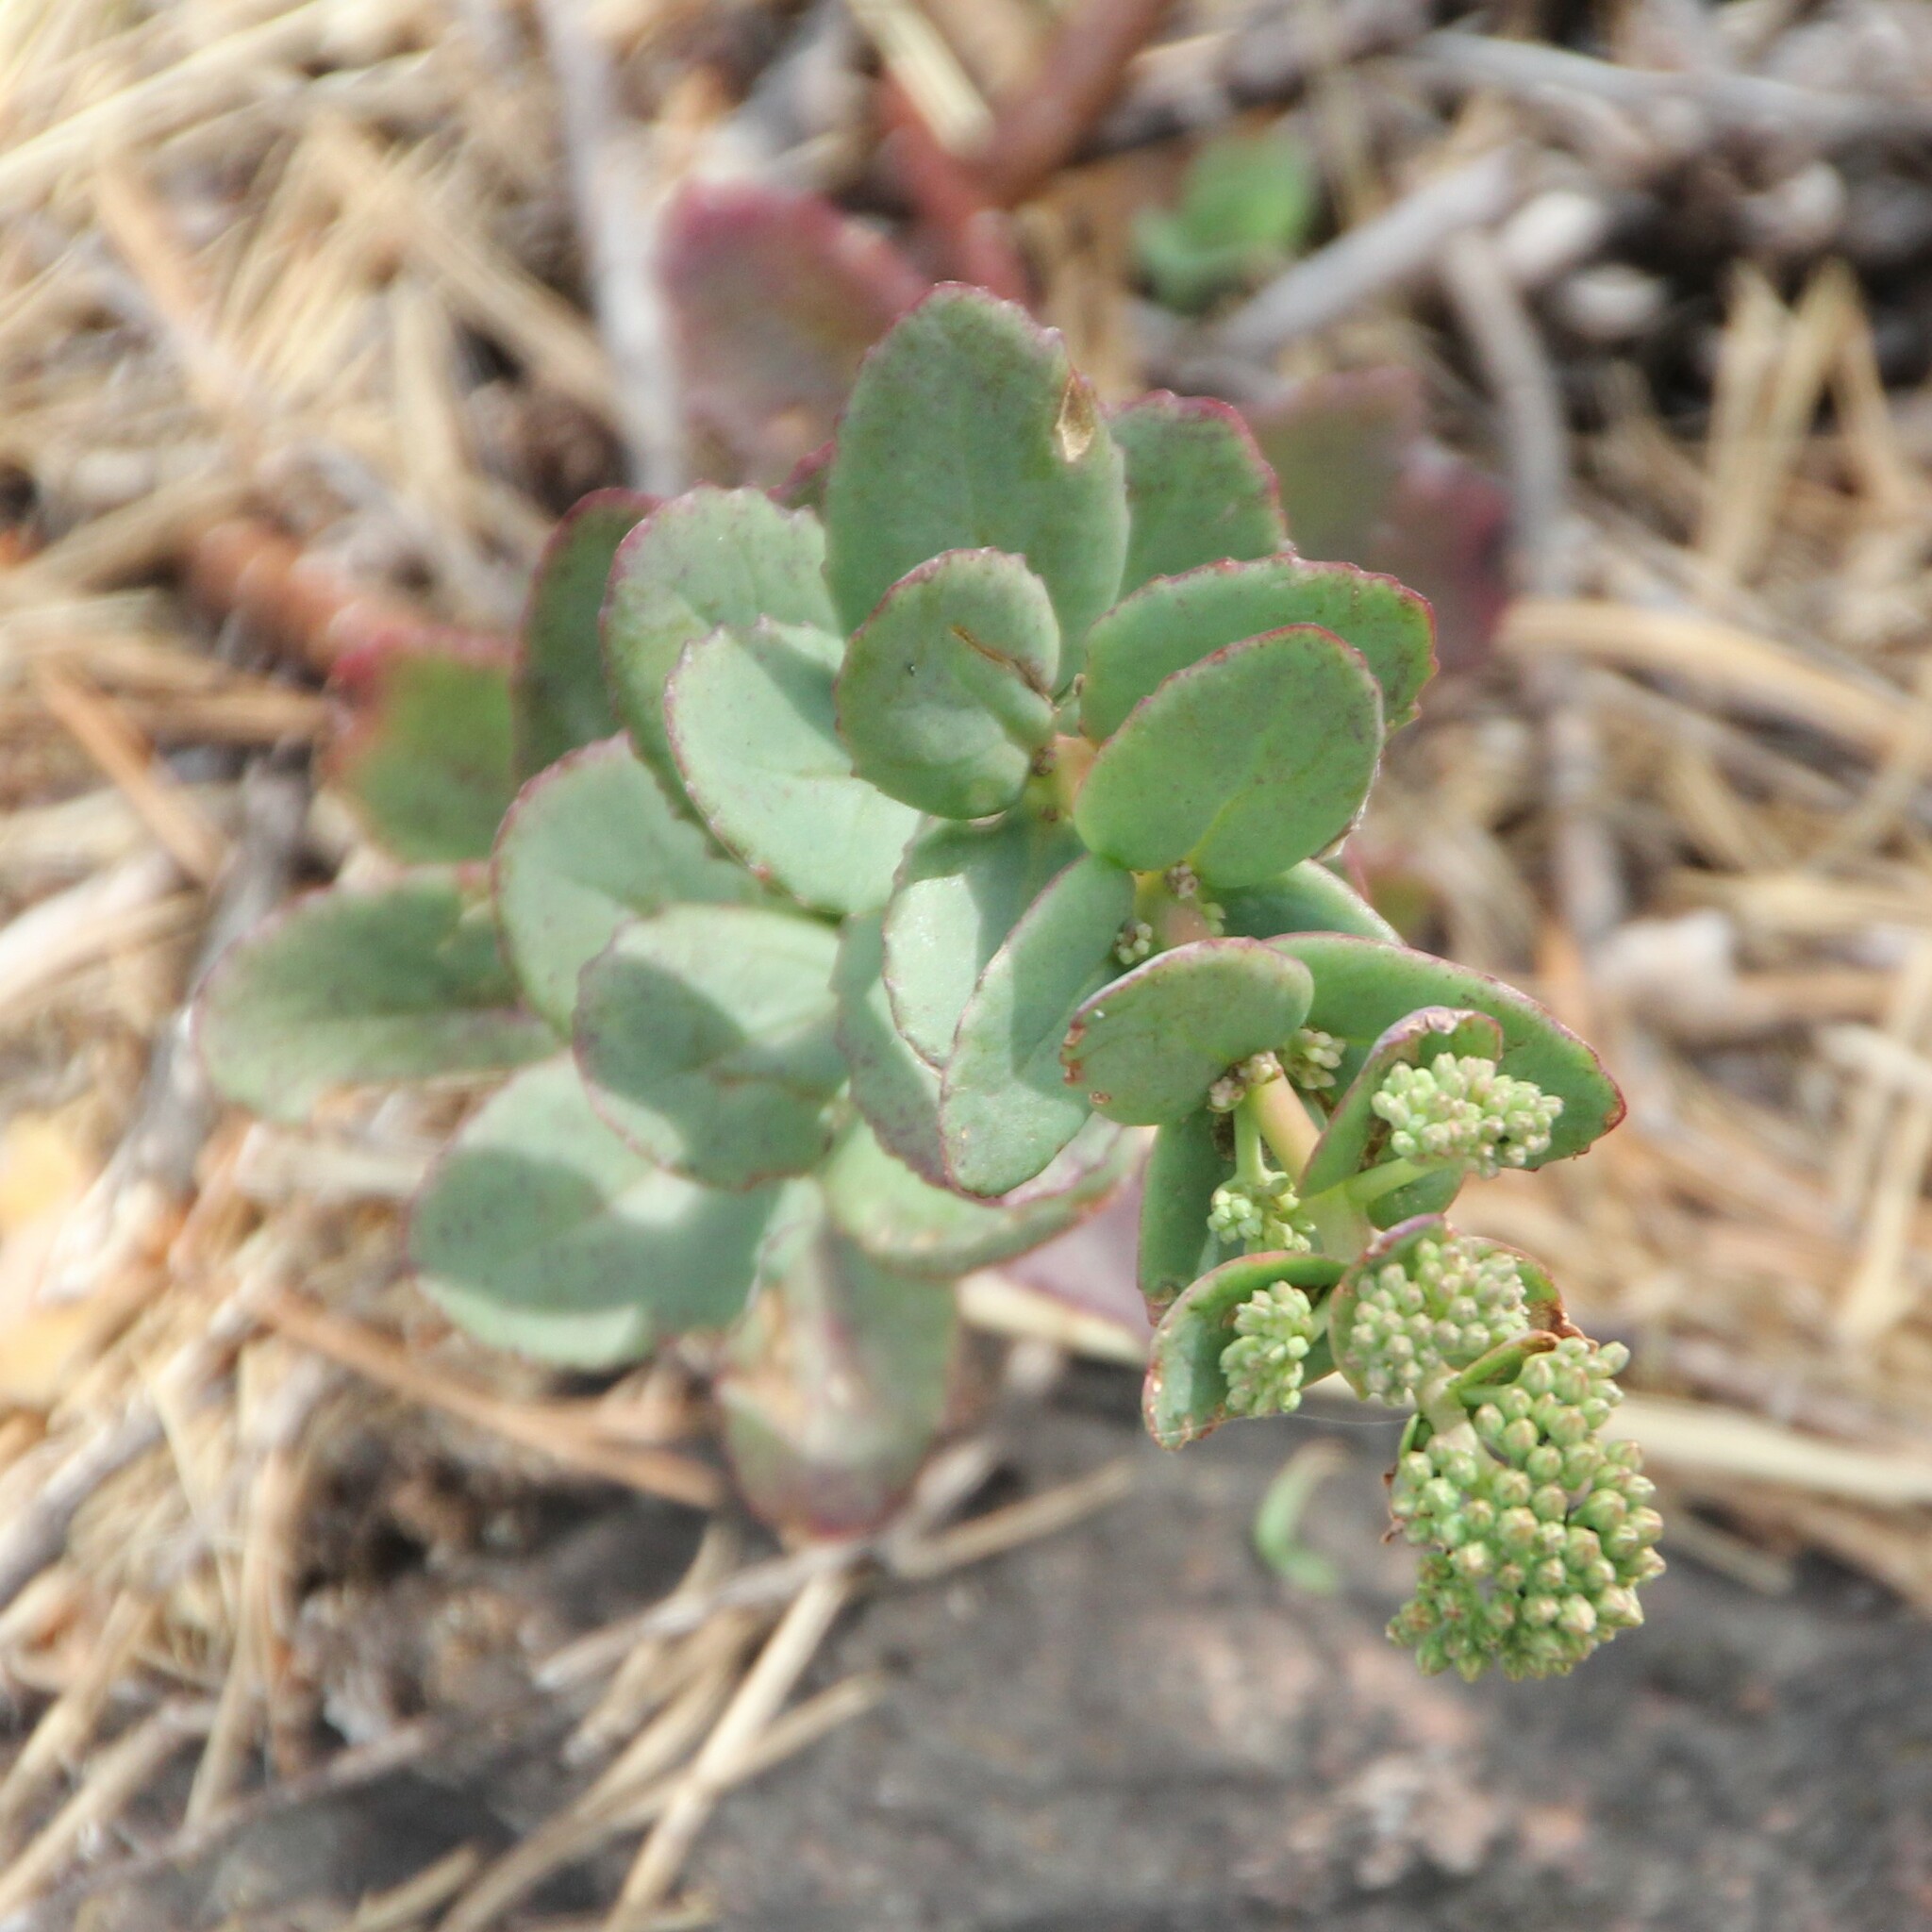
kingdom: Plantae
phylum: Tracheophyta
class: Magnoliopsida
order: Saxifragales
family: Crassulaceae
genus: Hylotelephium
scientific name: Hylotelephium maximum
